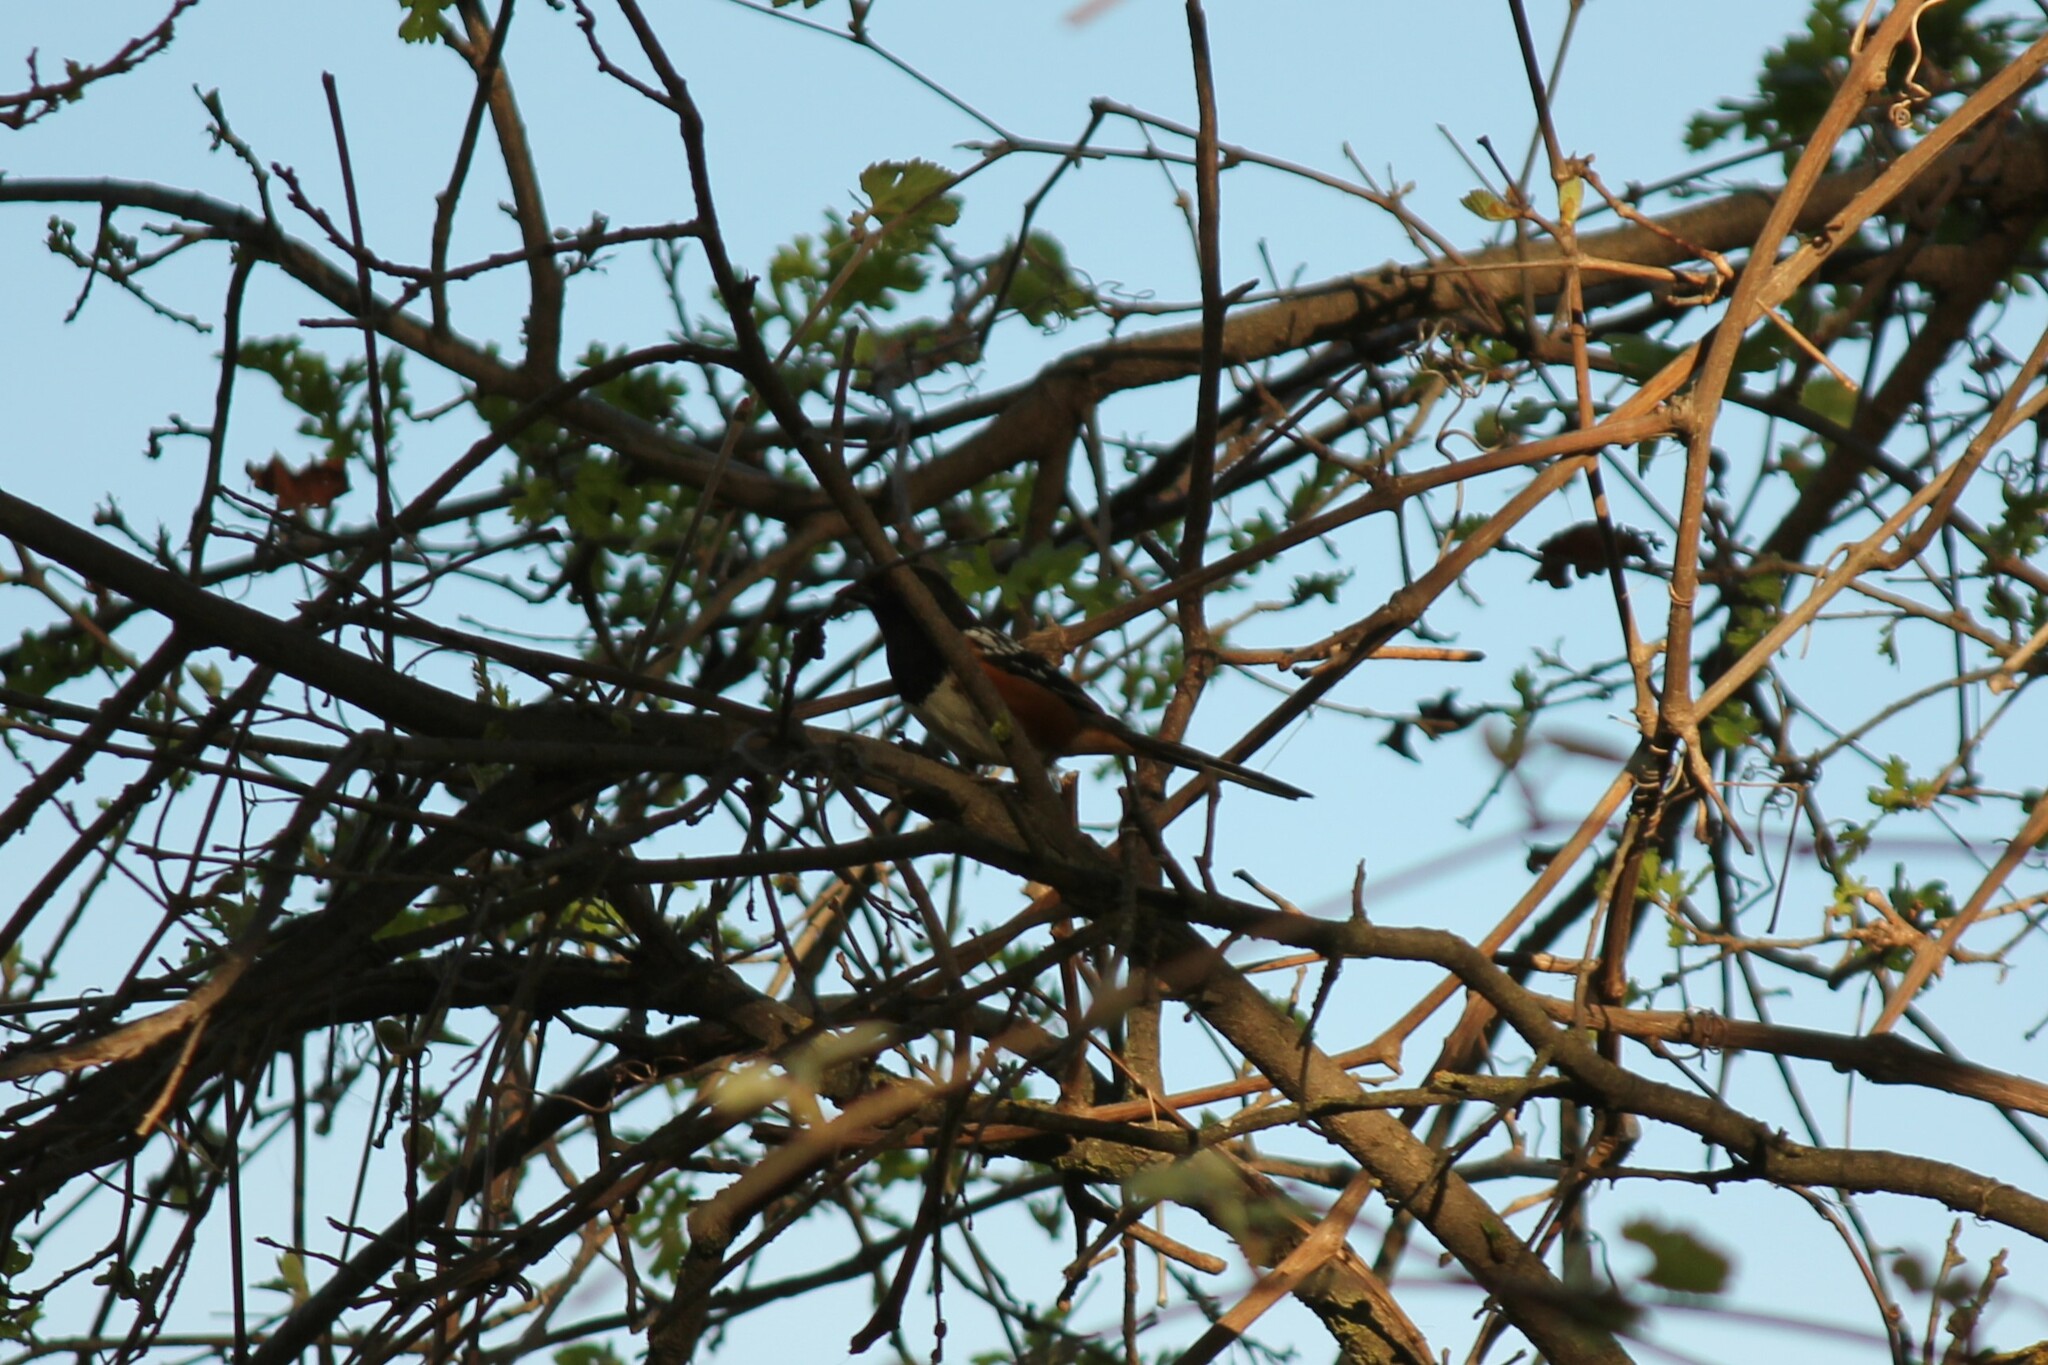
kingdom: Animalia
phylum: Chordata
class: Aves
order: Passeriformes
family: Passerellidae
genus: Pipilo
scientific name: Pipilo maculatus
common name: Spotted towhee
